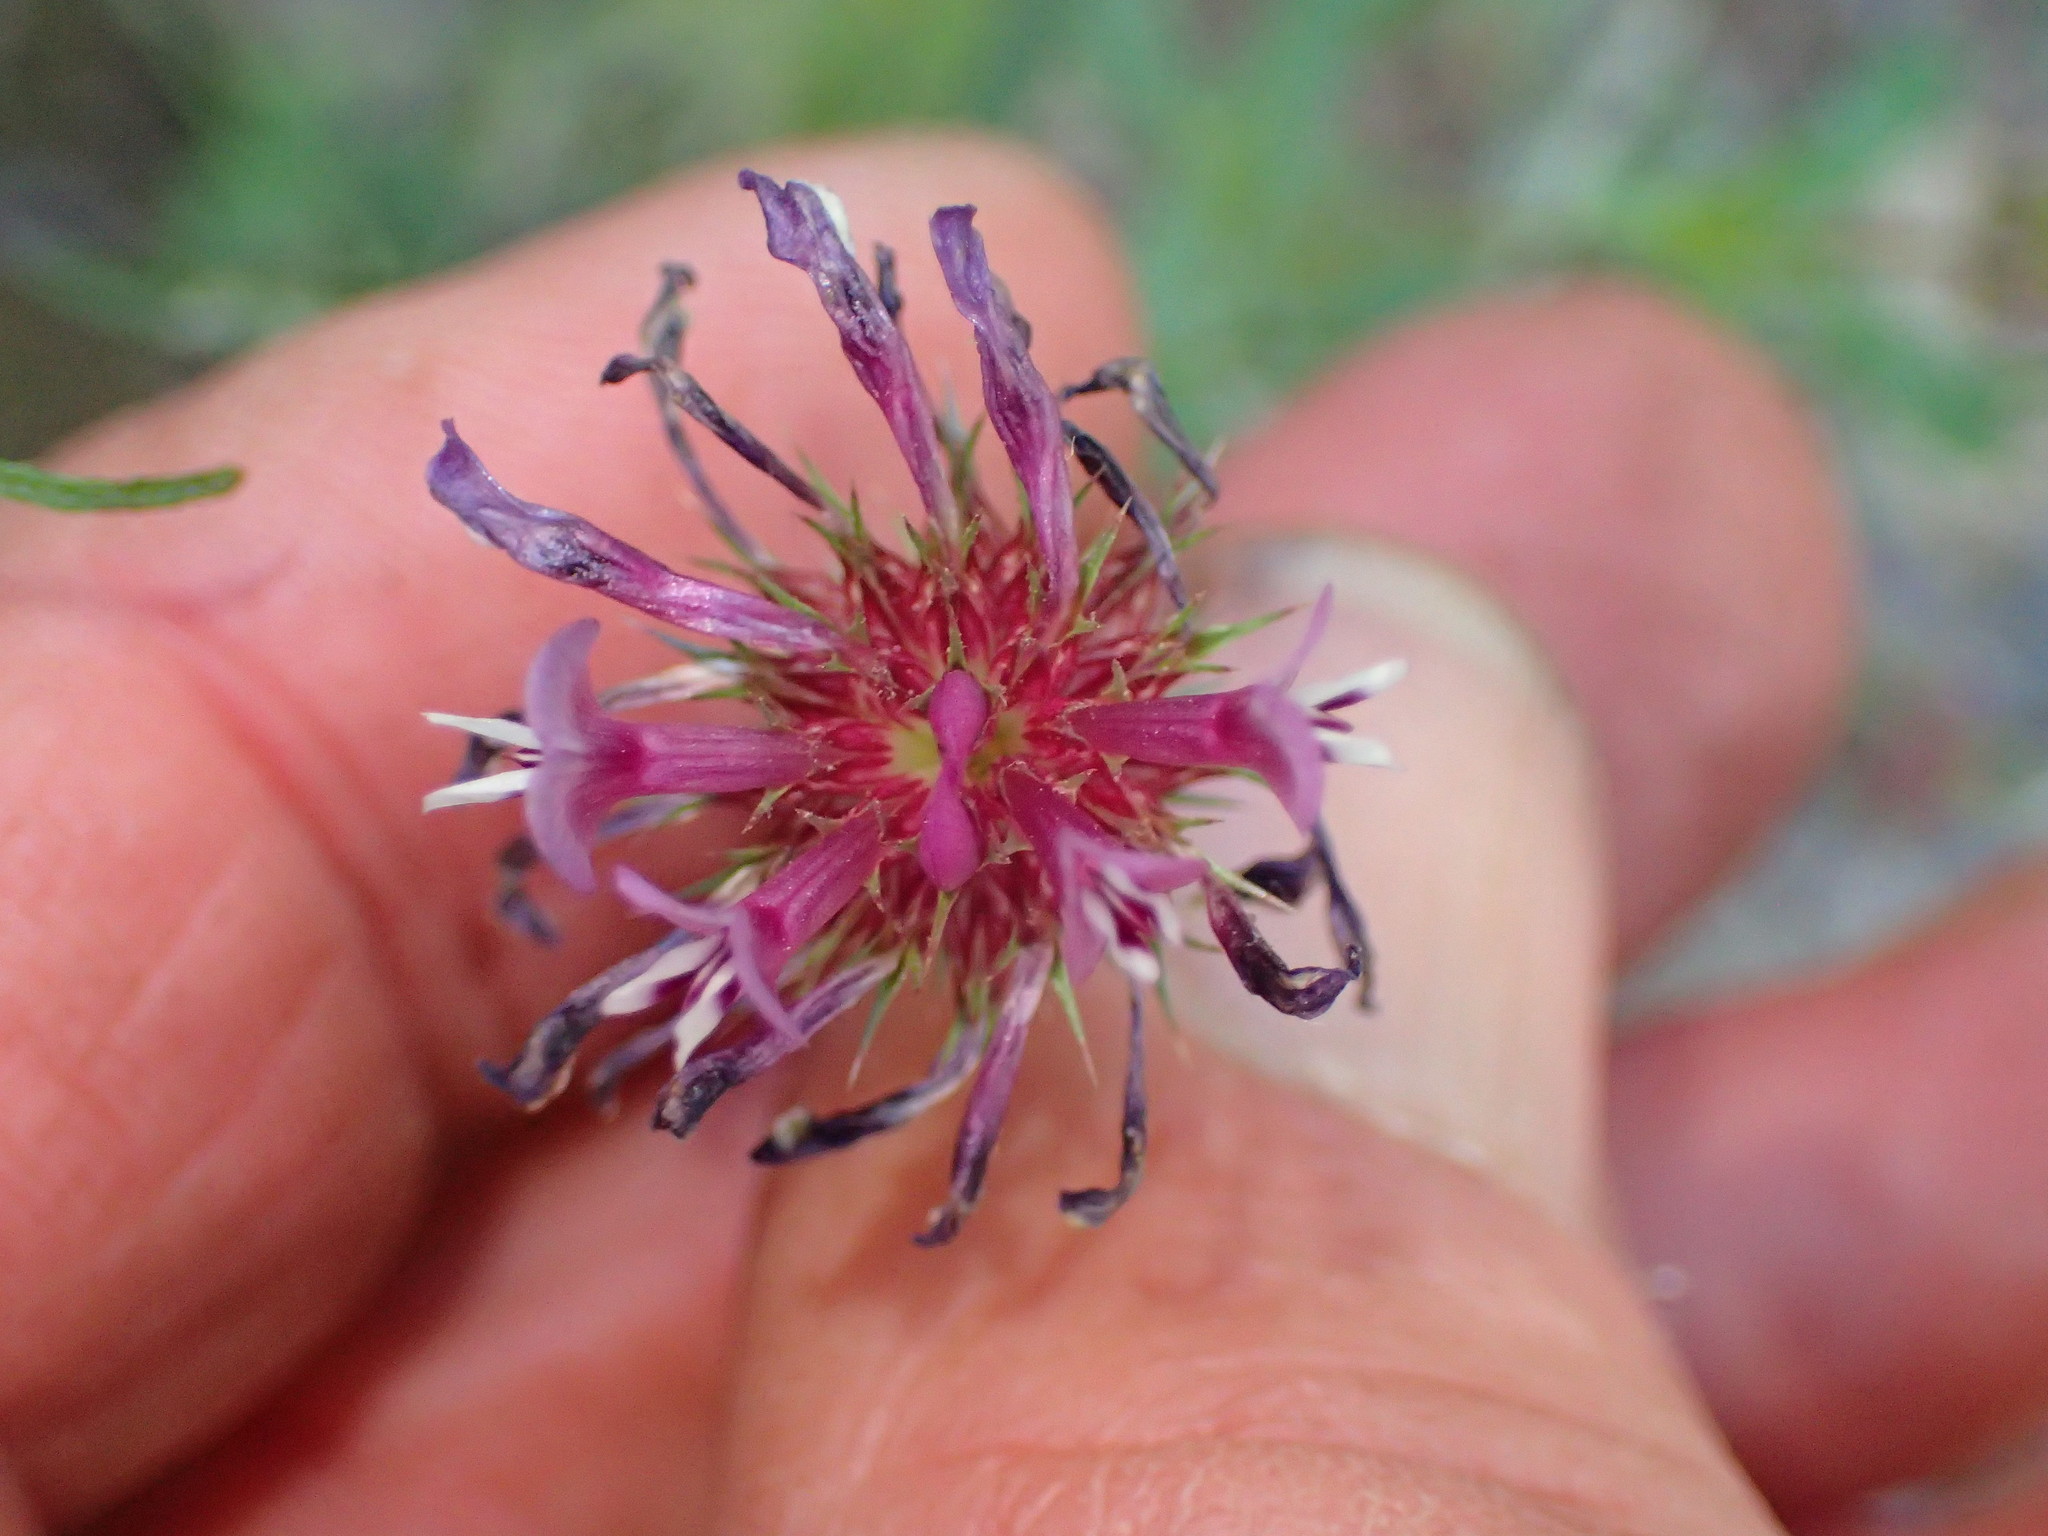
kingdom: Plantae
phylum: Tracheophyta
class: Magnoliopsida
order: Fabales
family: Fabaceae
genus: Trifolium
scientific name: Trifolium willdenovii
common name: Tomcat clover
